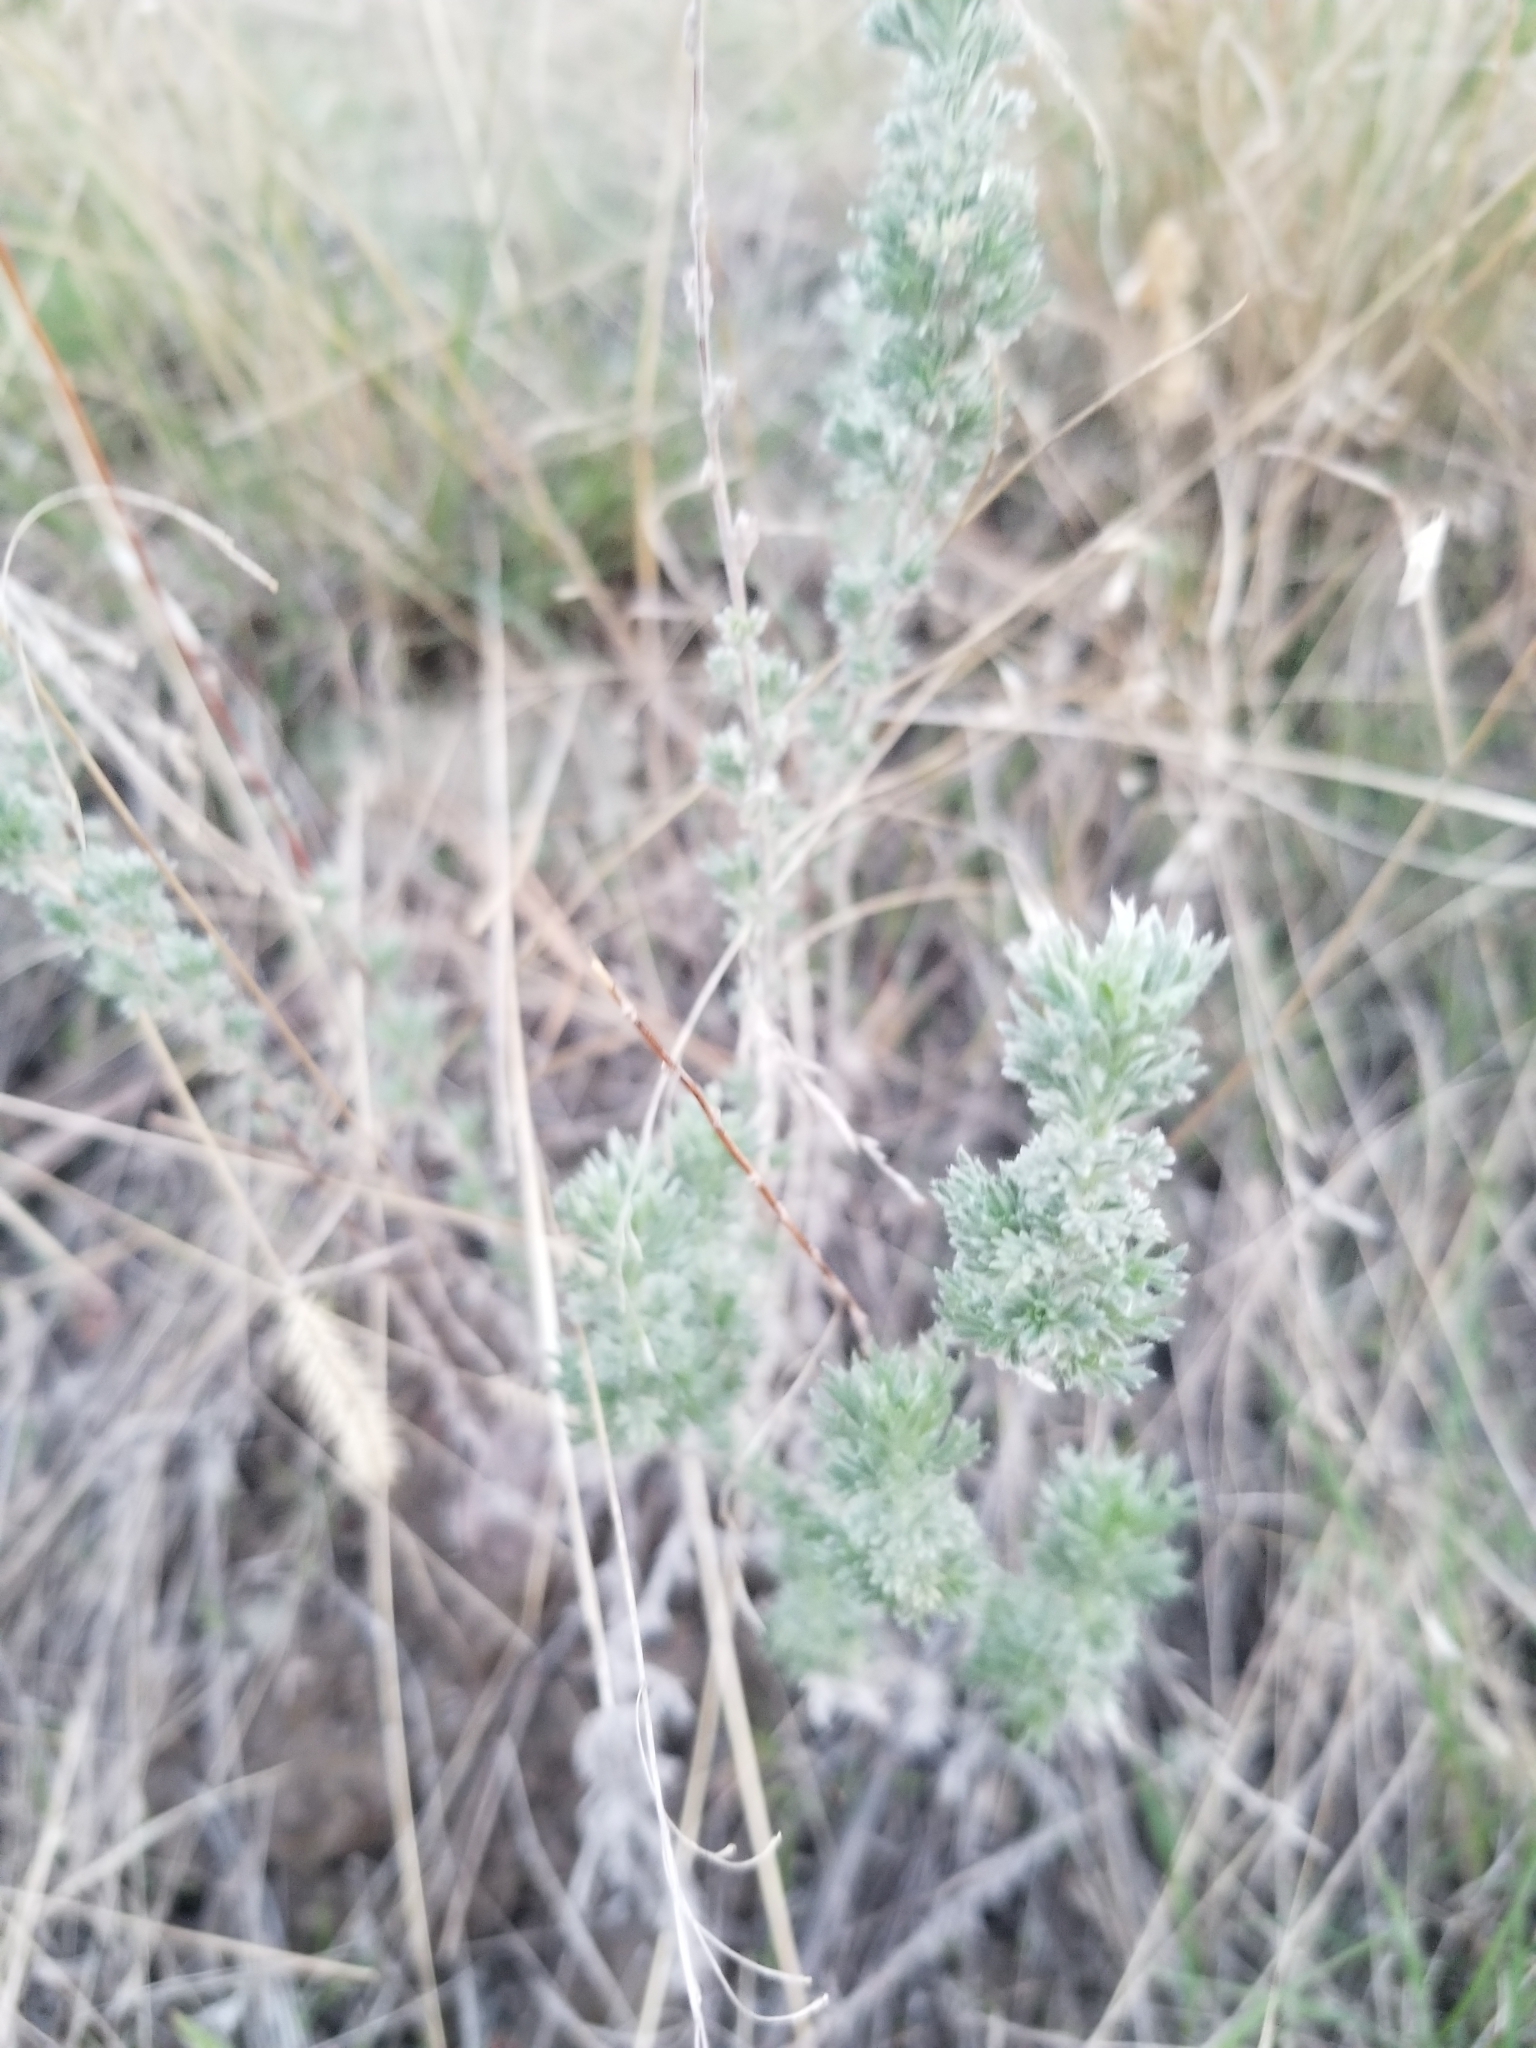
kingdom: Plantae
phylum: Tracheophyta
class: Magnoliopsida
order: Asterales
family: Asteraceae
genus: Artemisia
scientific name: Artemisia frigida
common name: Prairie sagewort
